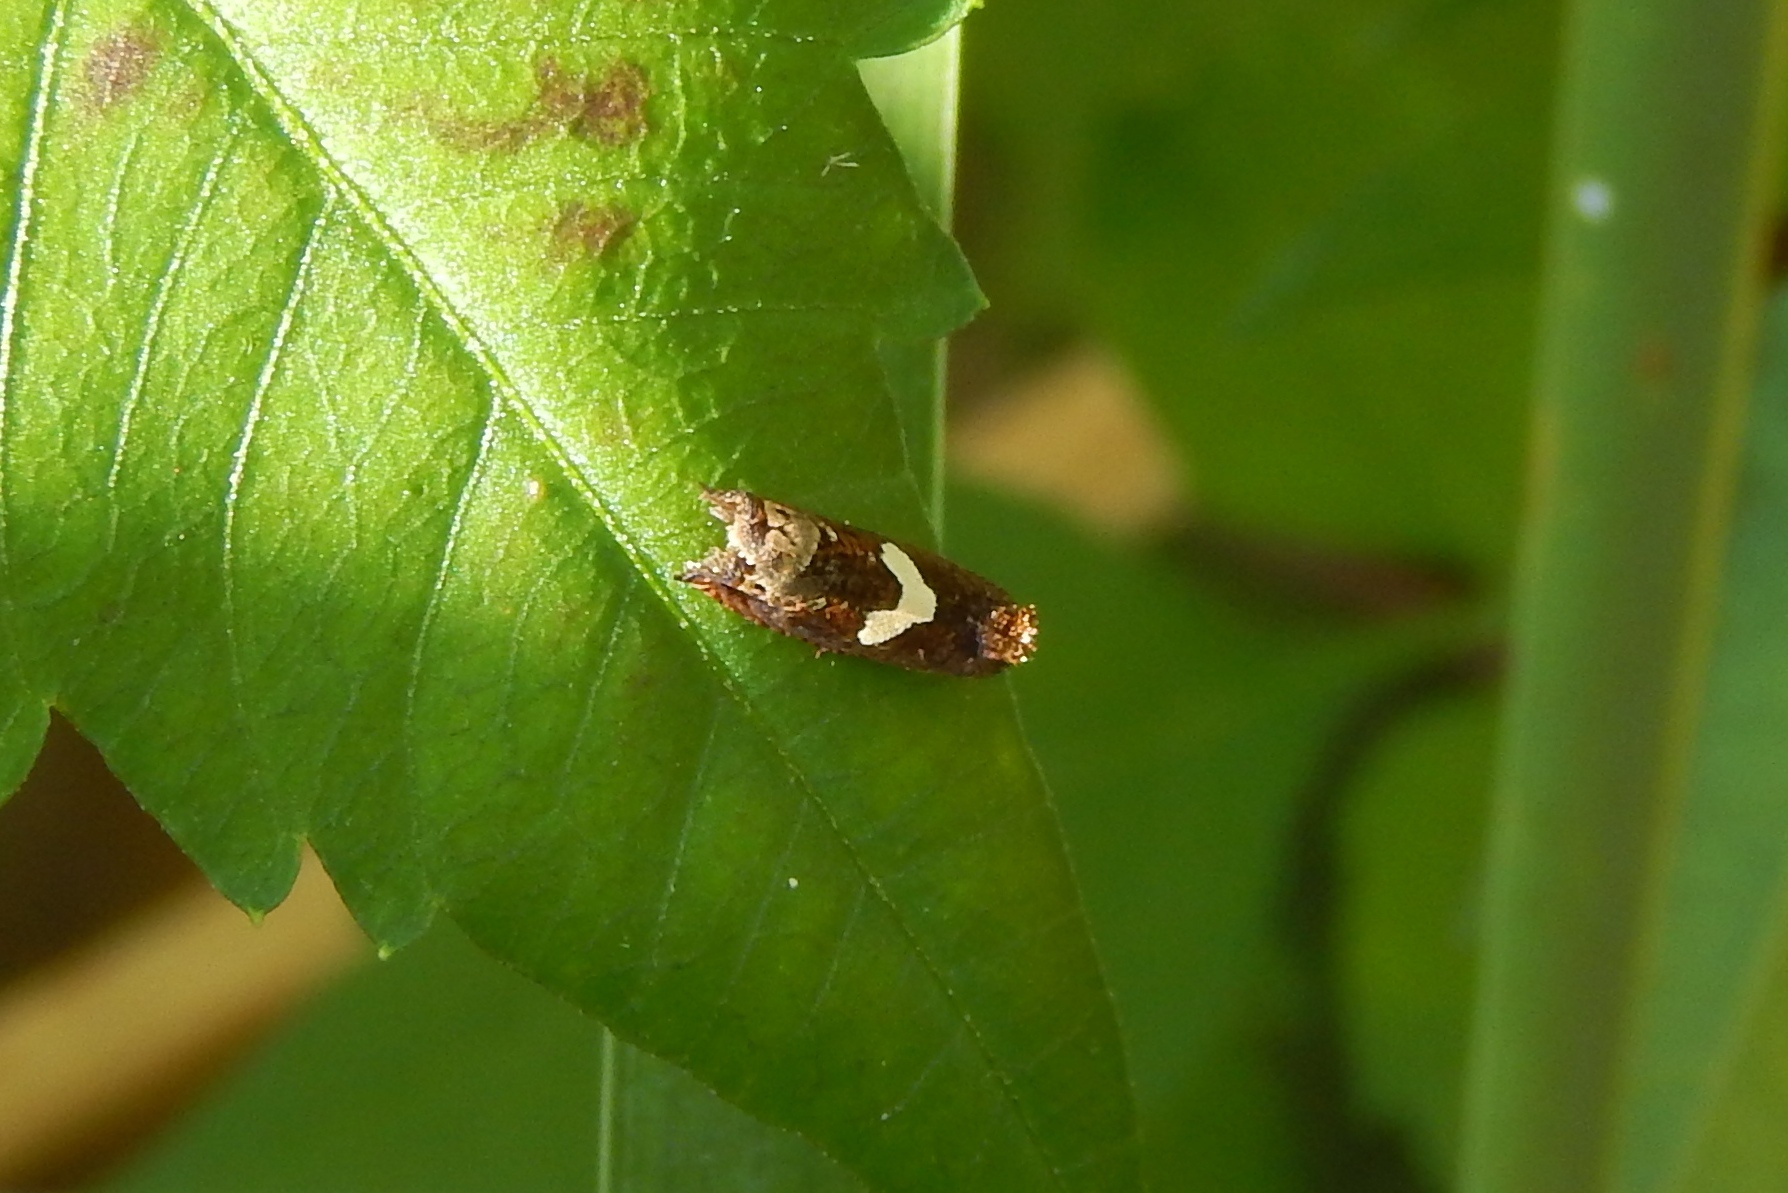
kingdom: Animalia
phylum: Arthropoda
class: Insecta
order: Lepidoptera
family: Tortricidae
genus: Epiblema
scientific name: Epiblema otiosana
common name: Bidens borer moth
